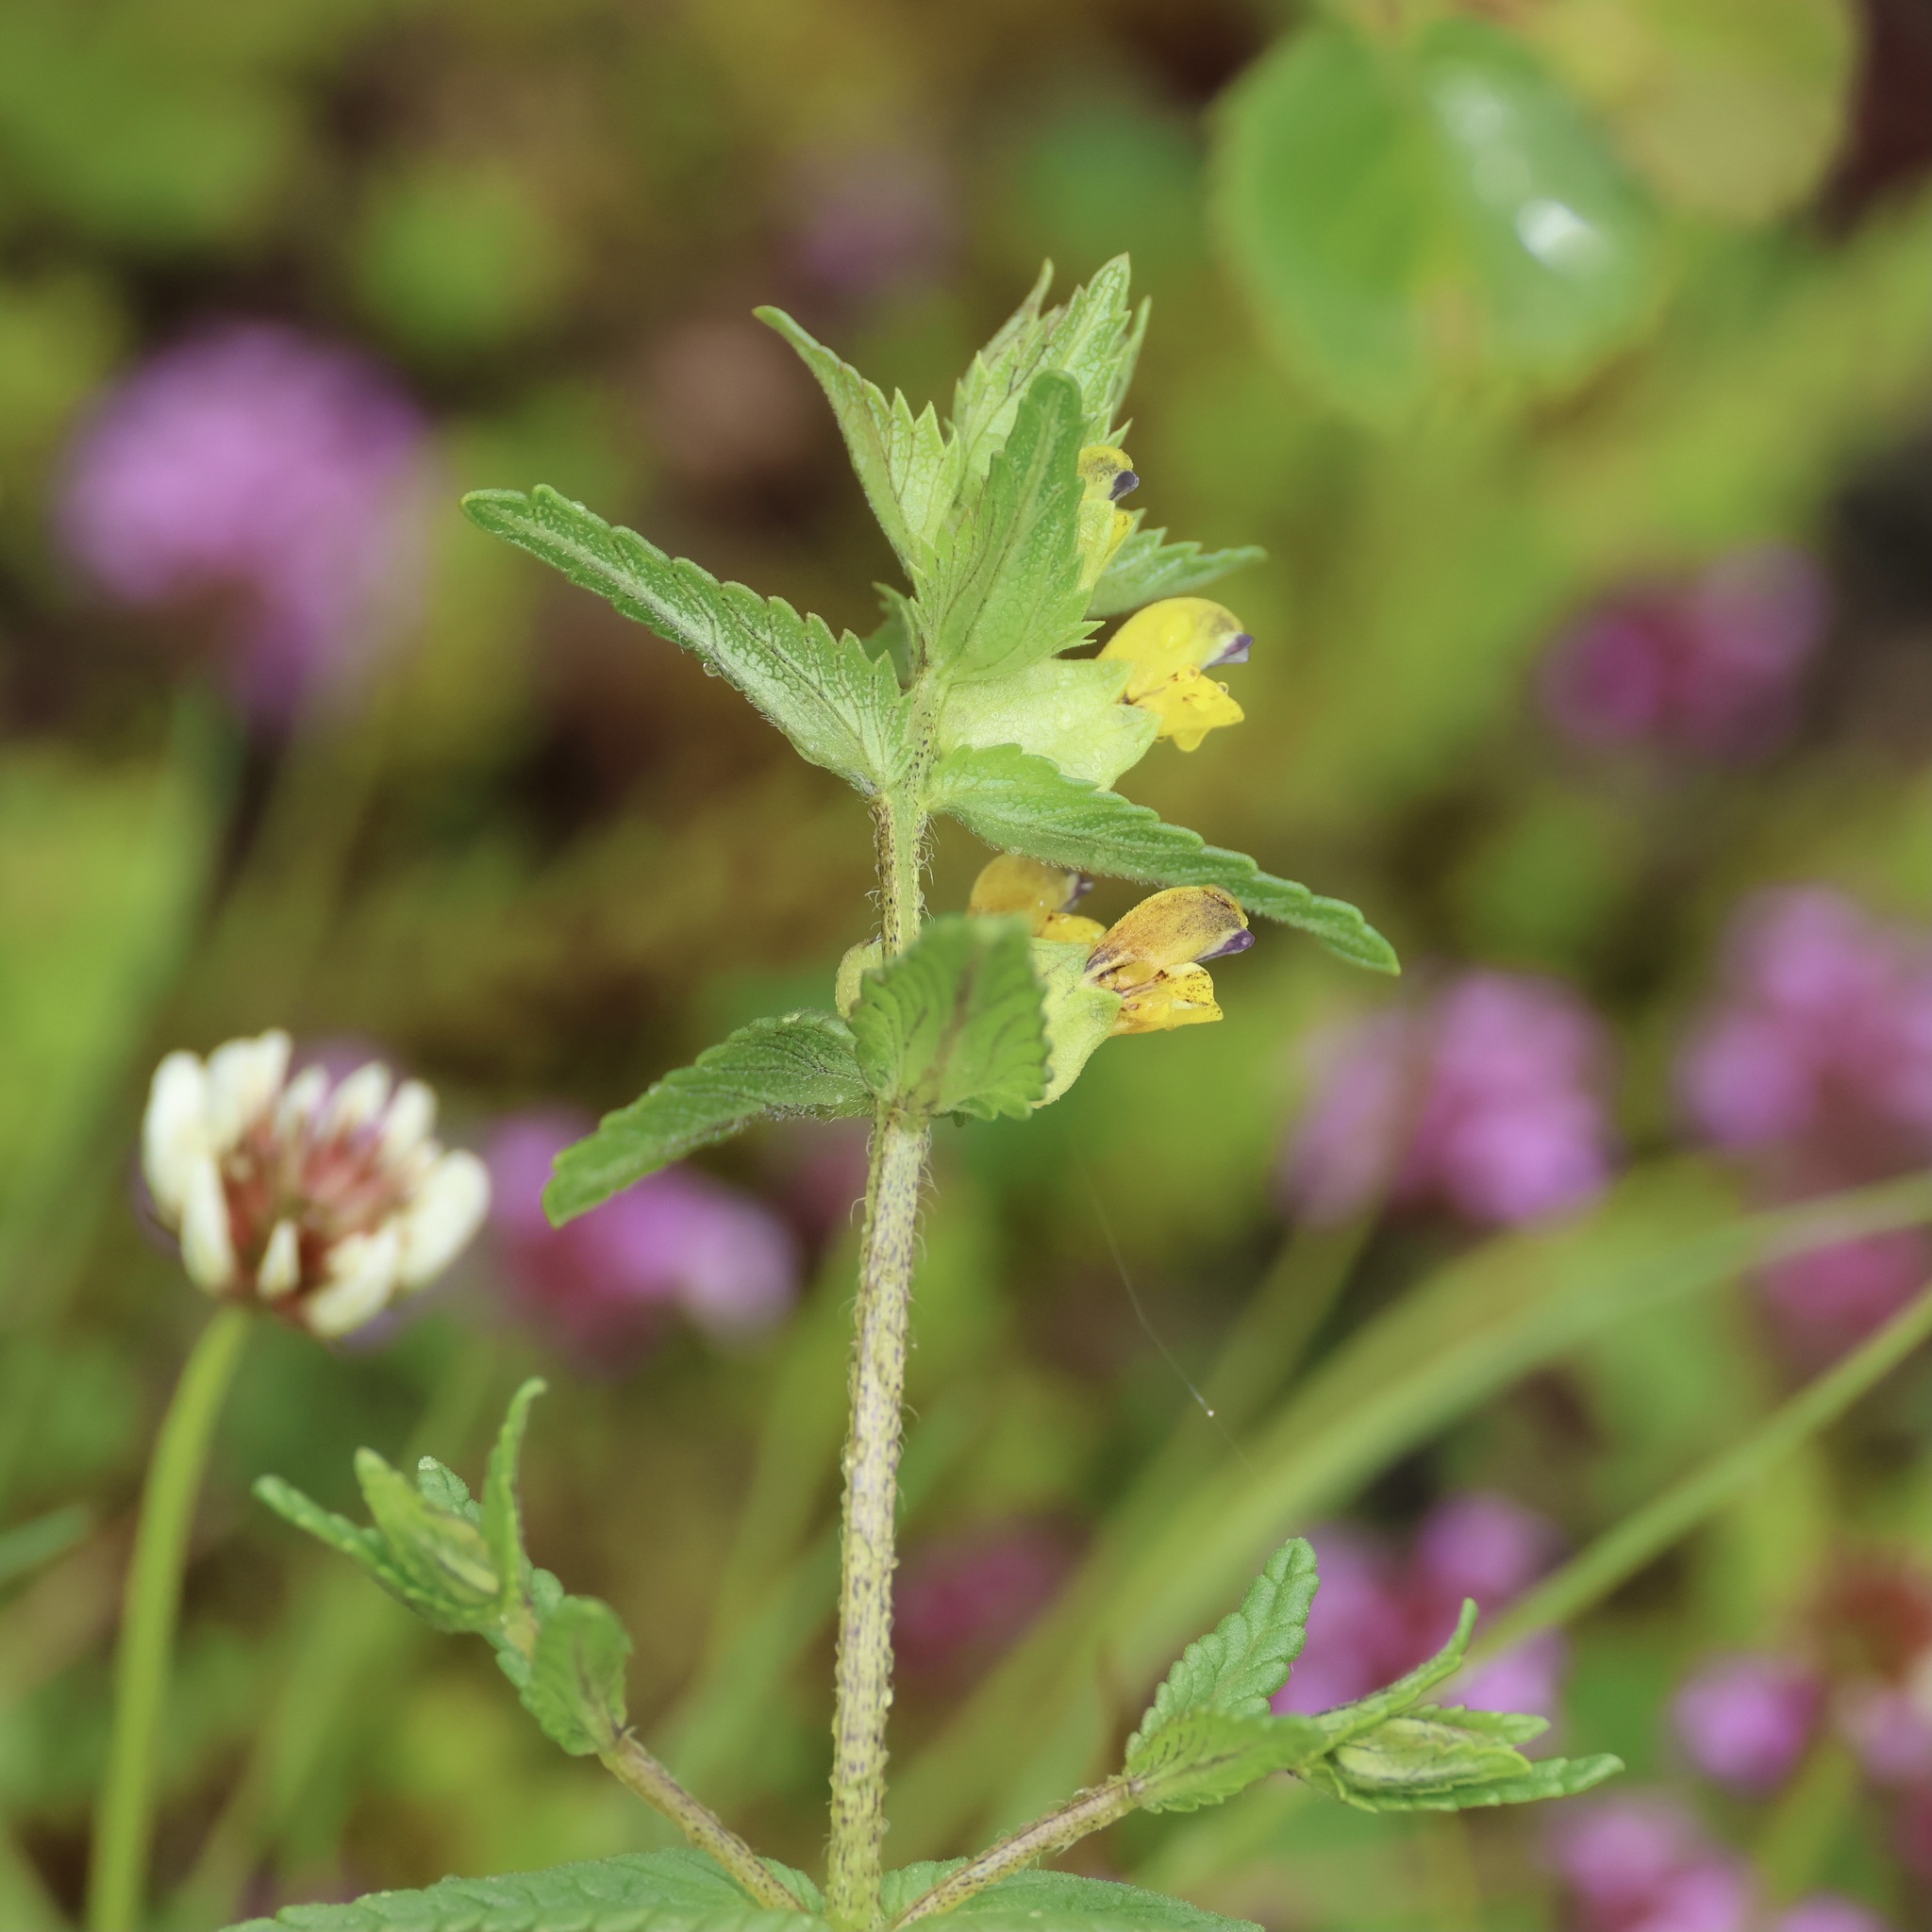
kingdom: Plantae
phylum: Tracheophyta
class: Magnoliopsida
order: Lamiales
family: Orobanchaceae
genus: Rhinanthus
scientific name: Rhinanthus minor
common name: Yellow-rattle
